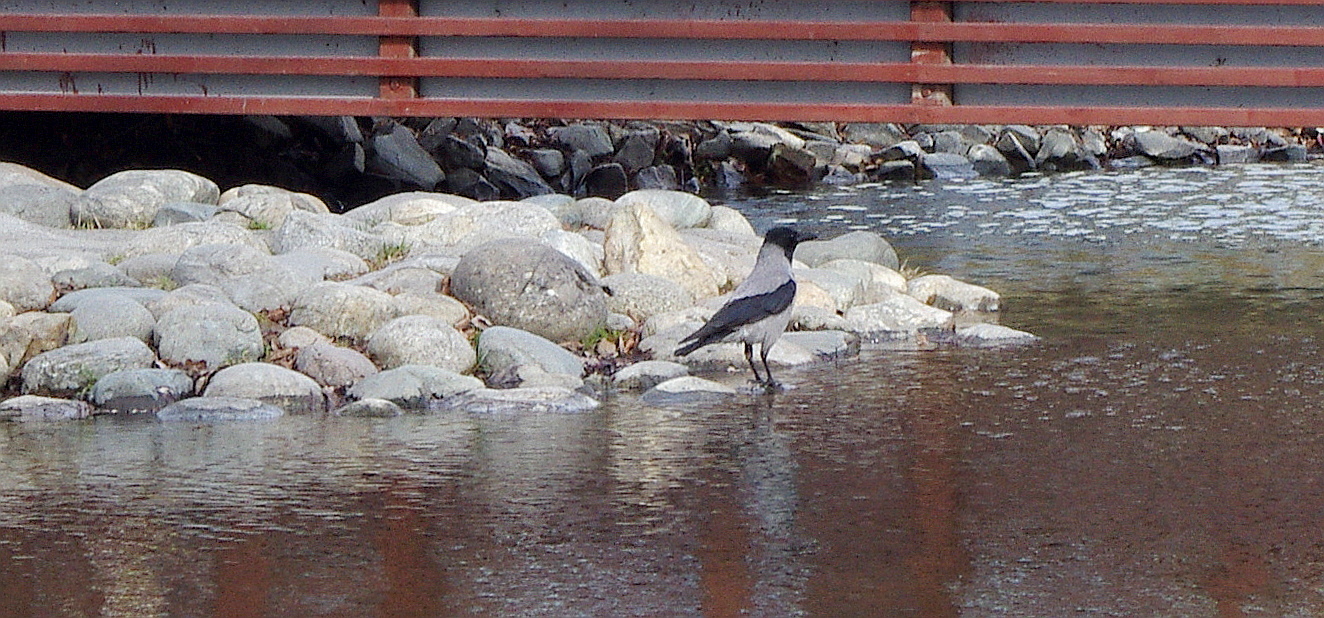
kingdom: Animalia
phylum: Chordata
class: Aves
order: Passeriformes
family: Corvidae
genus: Corvus
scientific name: Corvus cornix
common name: Hooded crow
